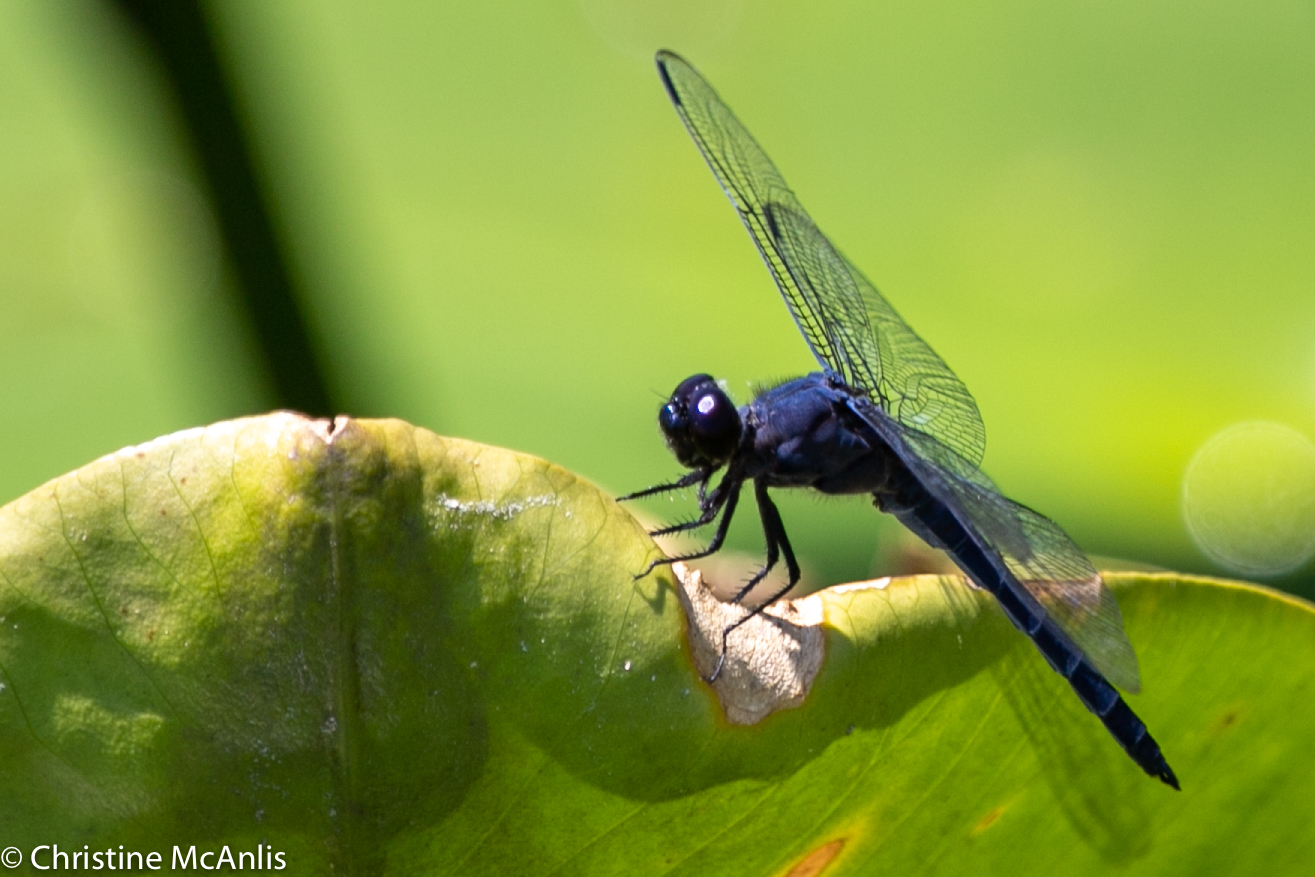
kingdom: Animalia
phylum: Arthropoda
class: Insecta
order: Odonata
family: Libellulidae
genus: Libellula
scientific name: Libellula incesta
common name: Slaty skimmer
